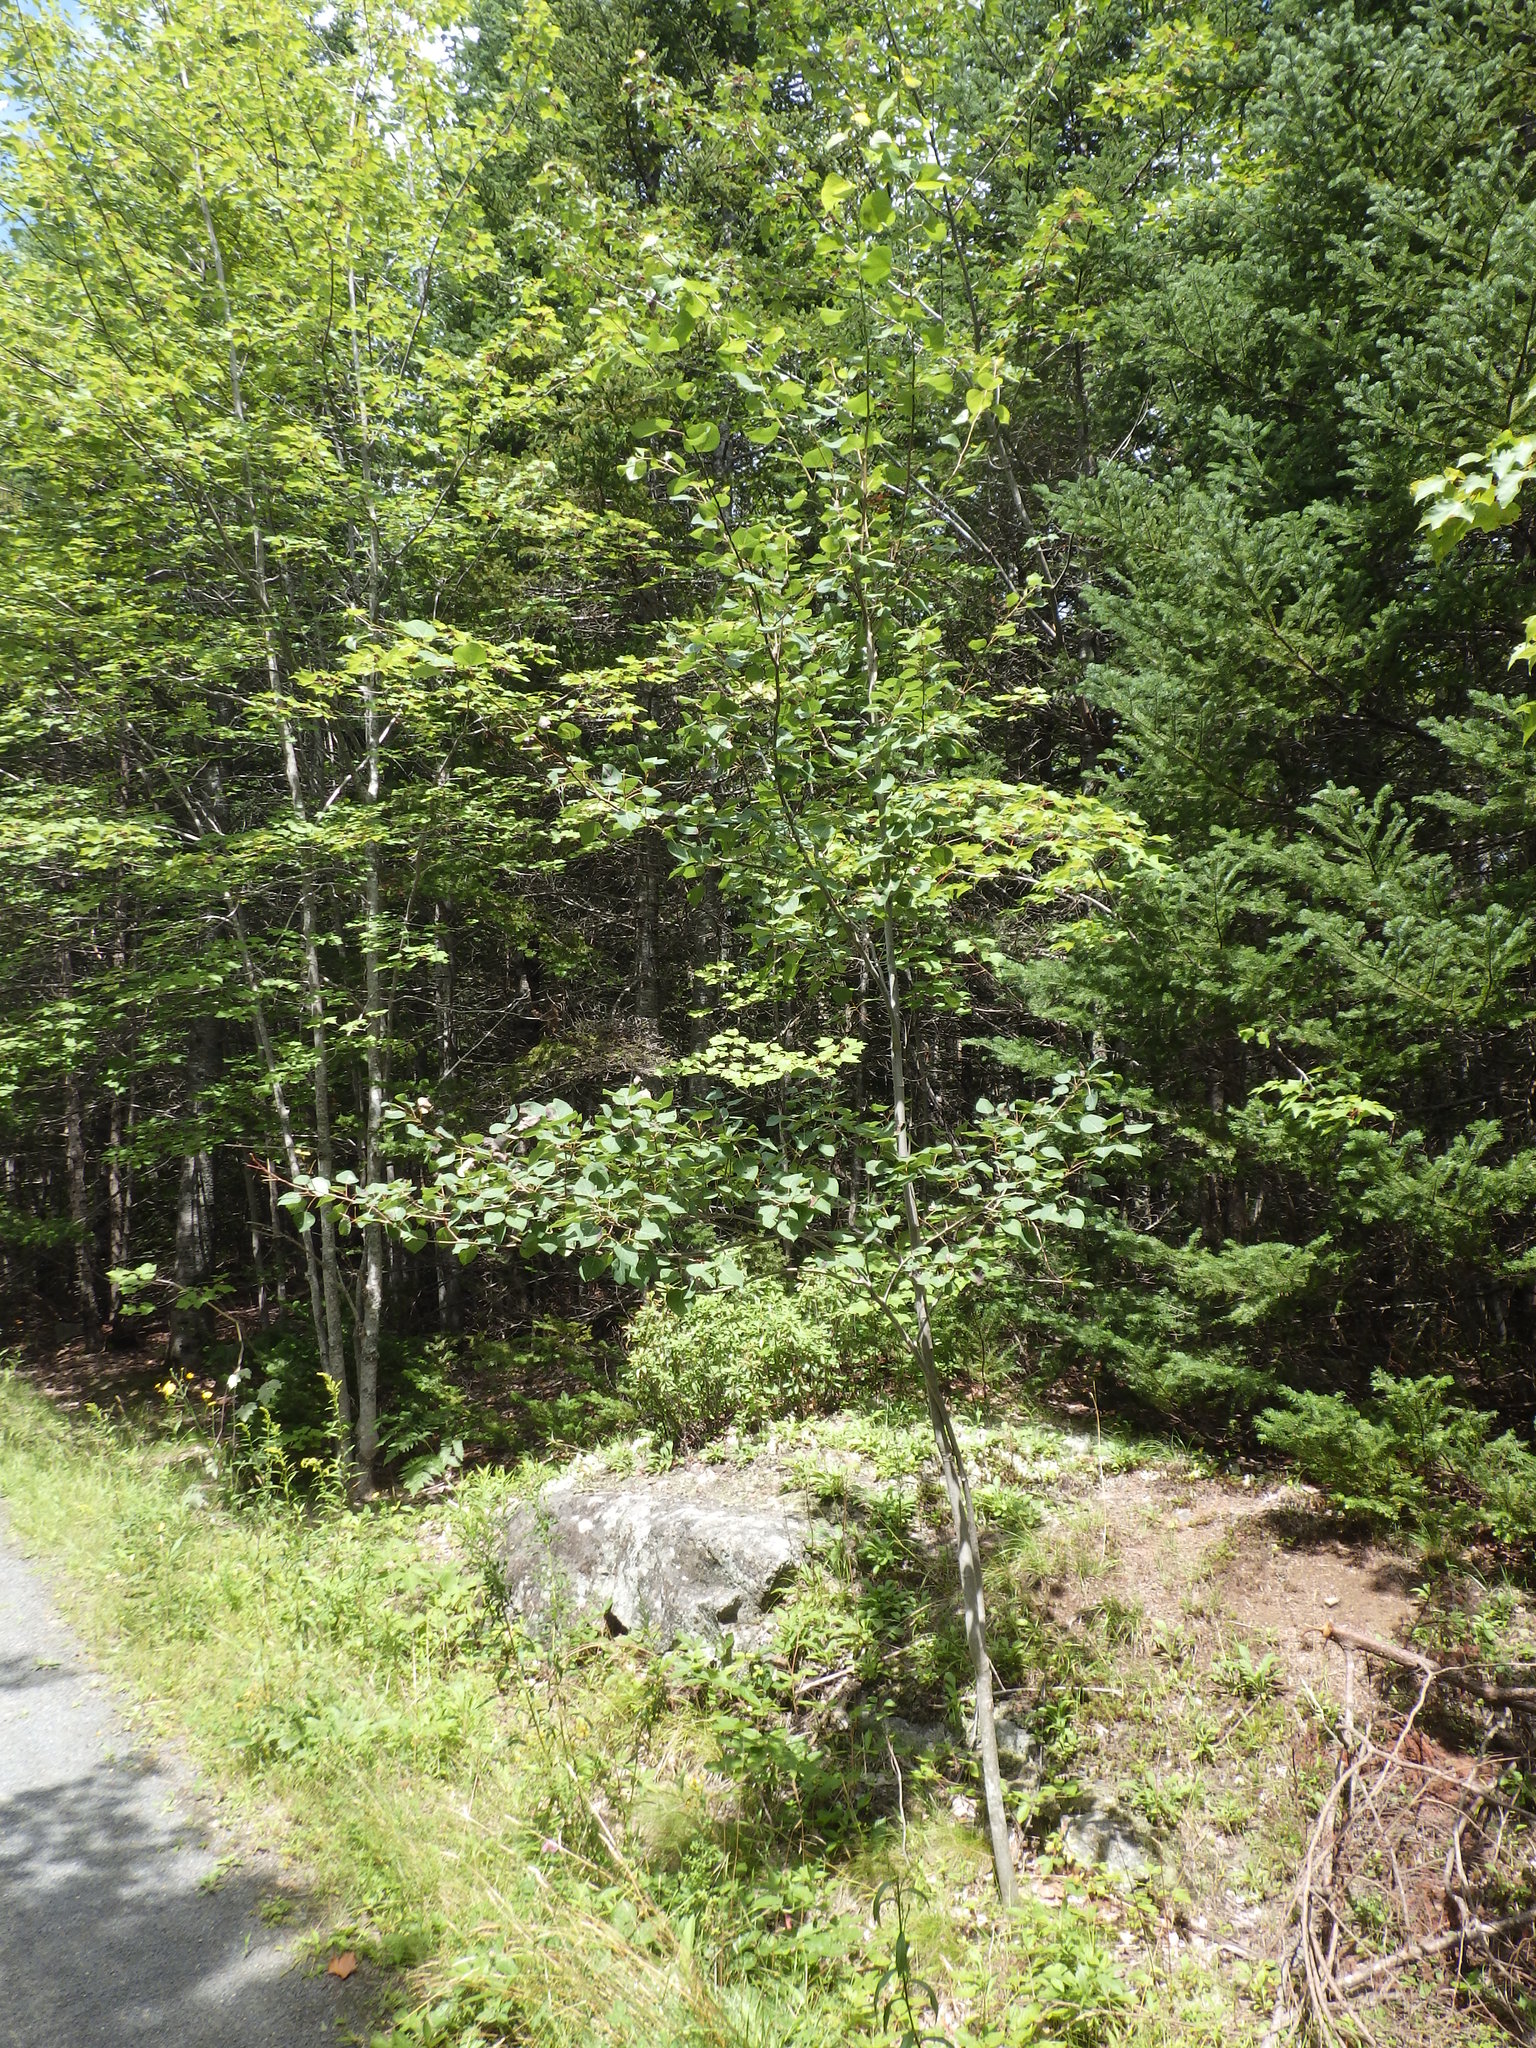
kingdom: Plantae
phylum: Tracheophyta
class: Magnoliopsida
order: Malpighiales
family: Salicaceae
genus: Populus
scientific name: Populus tremuloides
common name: Quaking aspen
